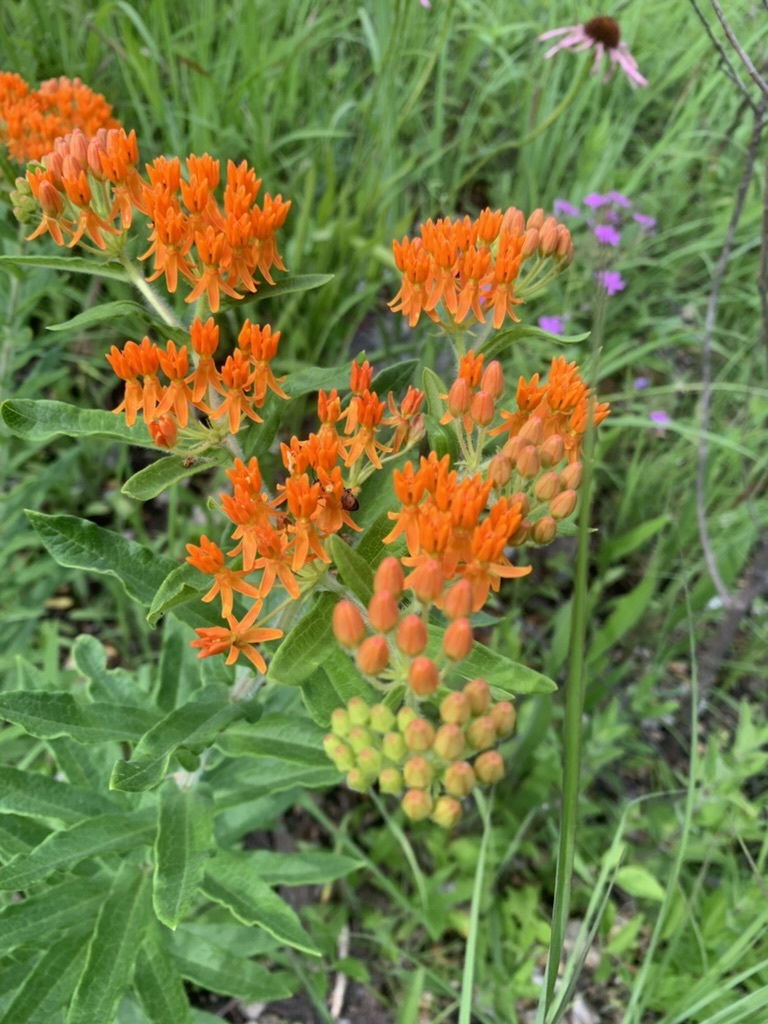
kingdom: Plantae
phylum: Tracheophyta
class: Magnoliopsida
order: Gentianales
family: Apocynaceae
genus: Asclepias
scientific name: Asclepias tuberosa
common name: Butterfly milkweed
